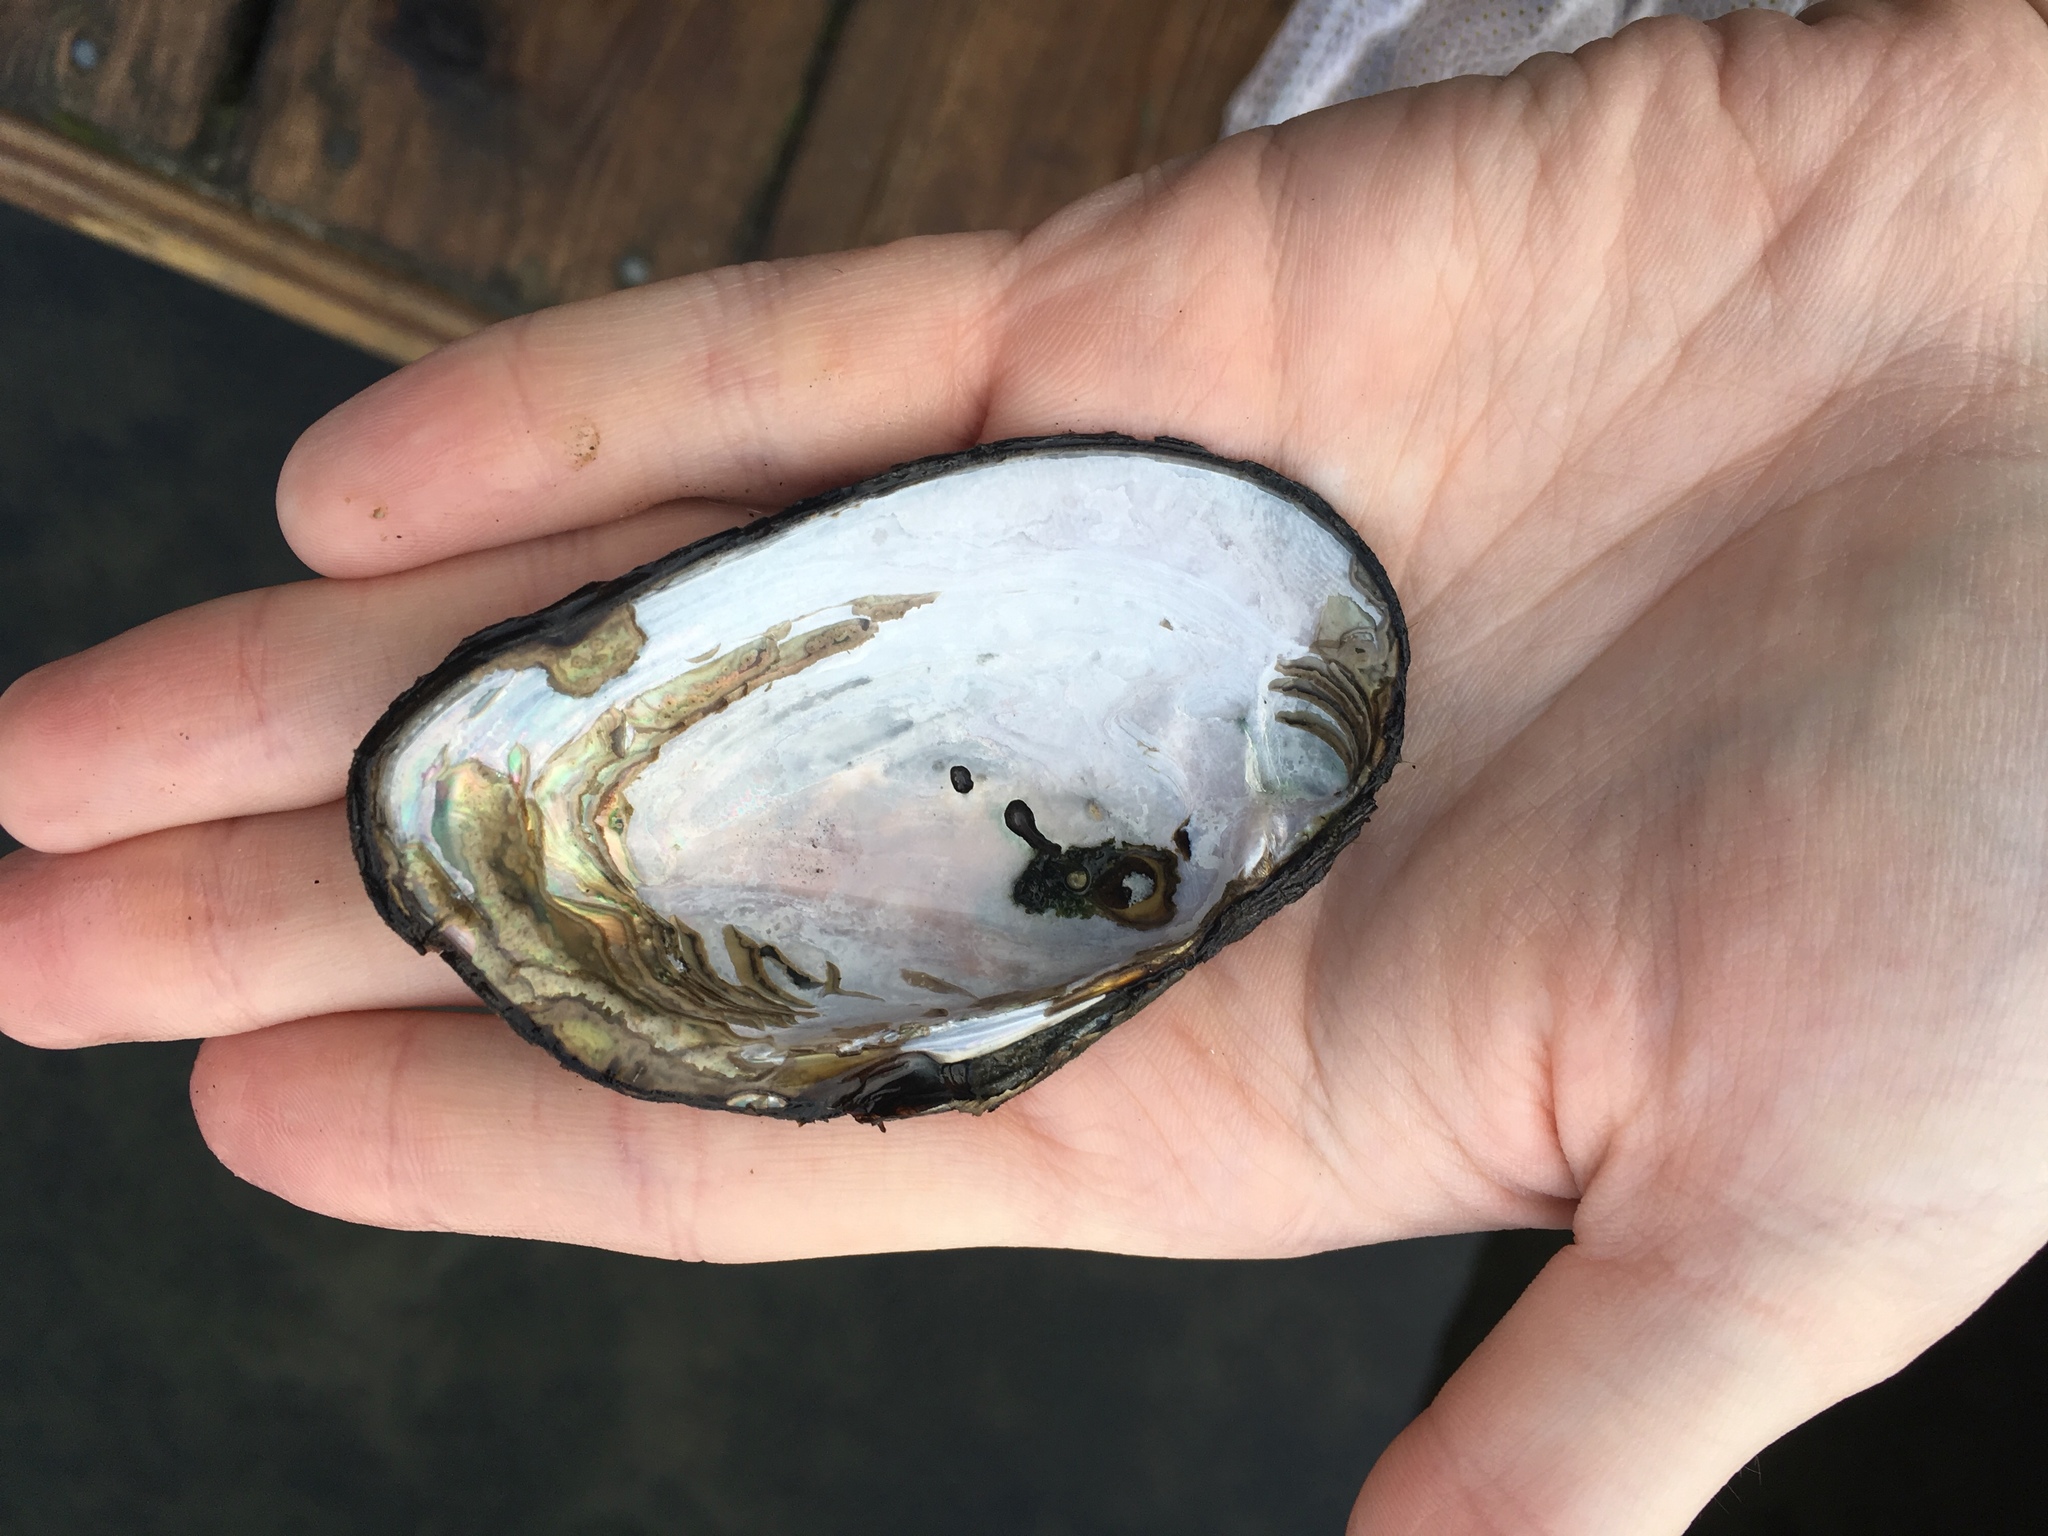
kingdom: Animalia
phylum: Mollusca
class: Bivalvia
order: Unionida
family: Unionidae
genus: Elliptio
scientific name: Elliptio complanata
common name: Eastern elliptio
